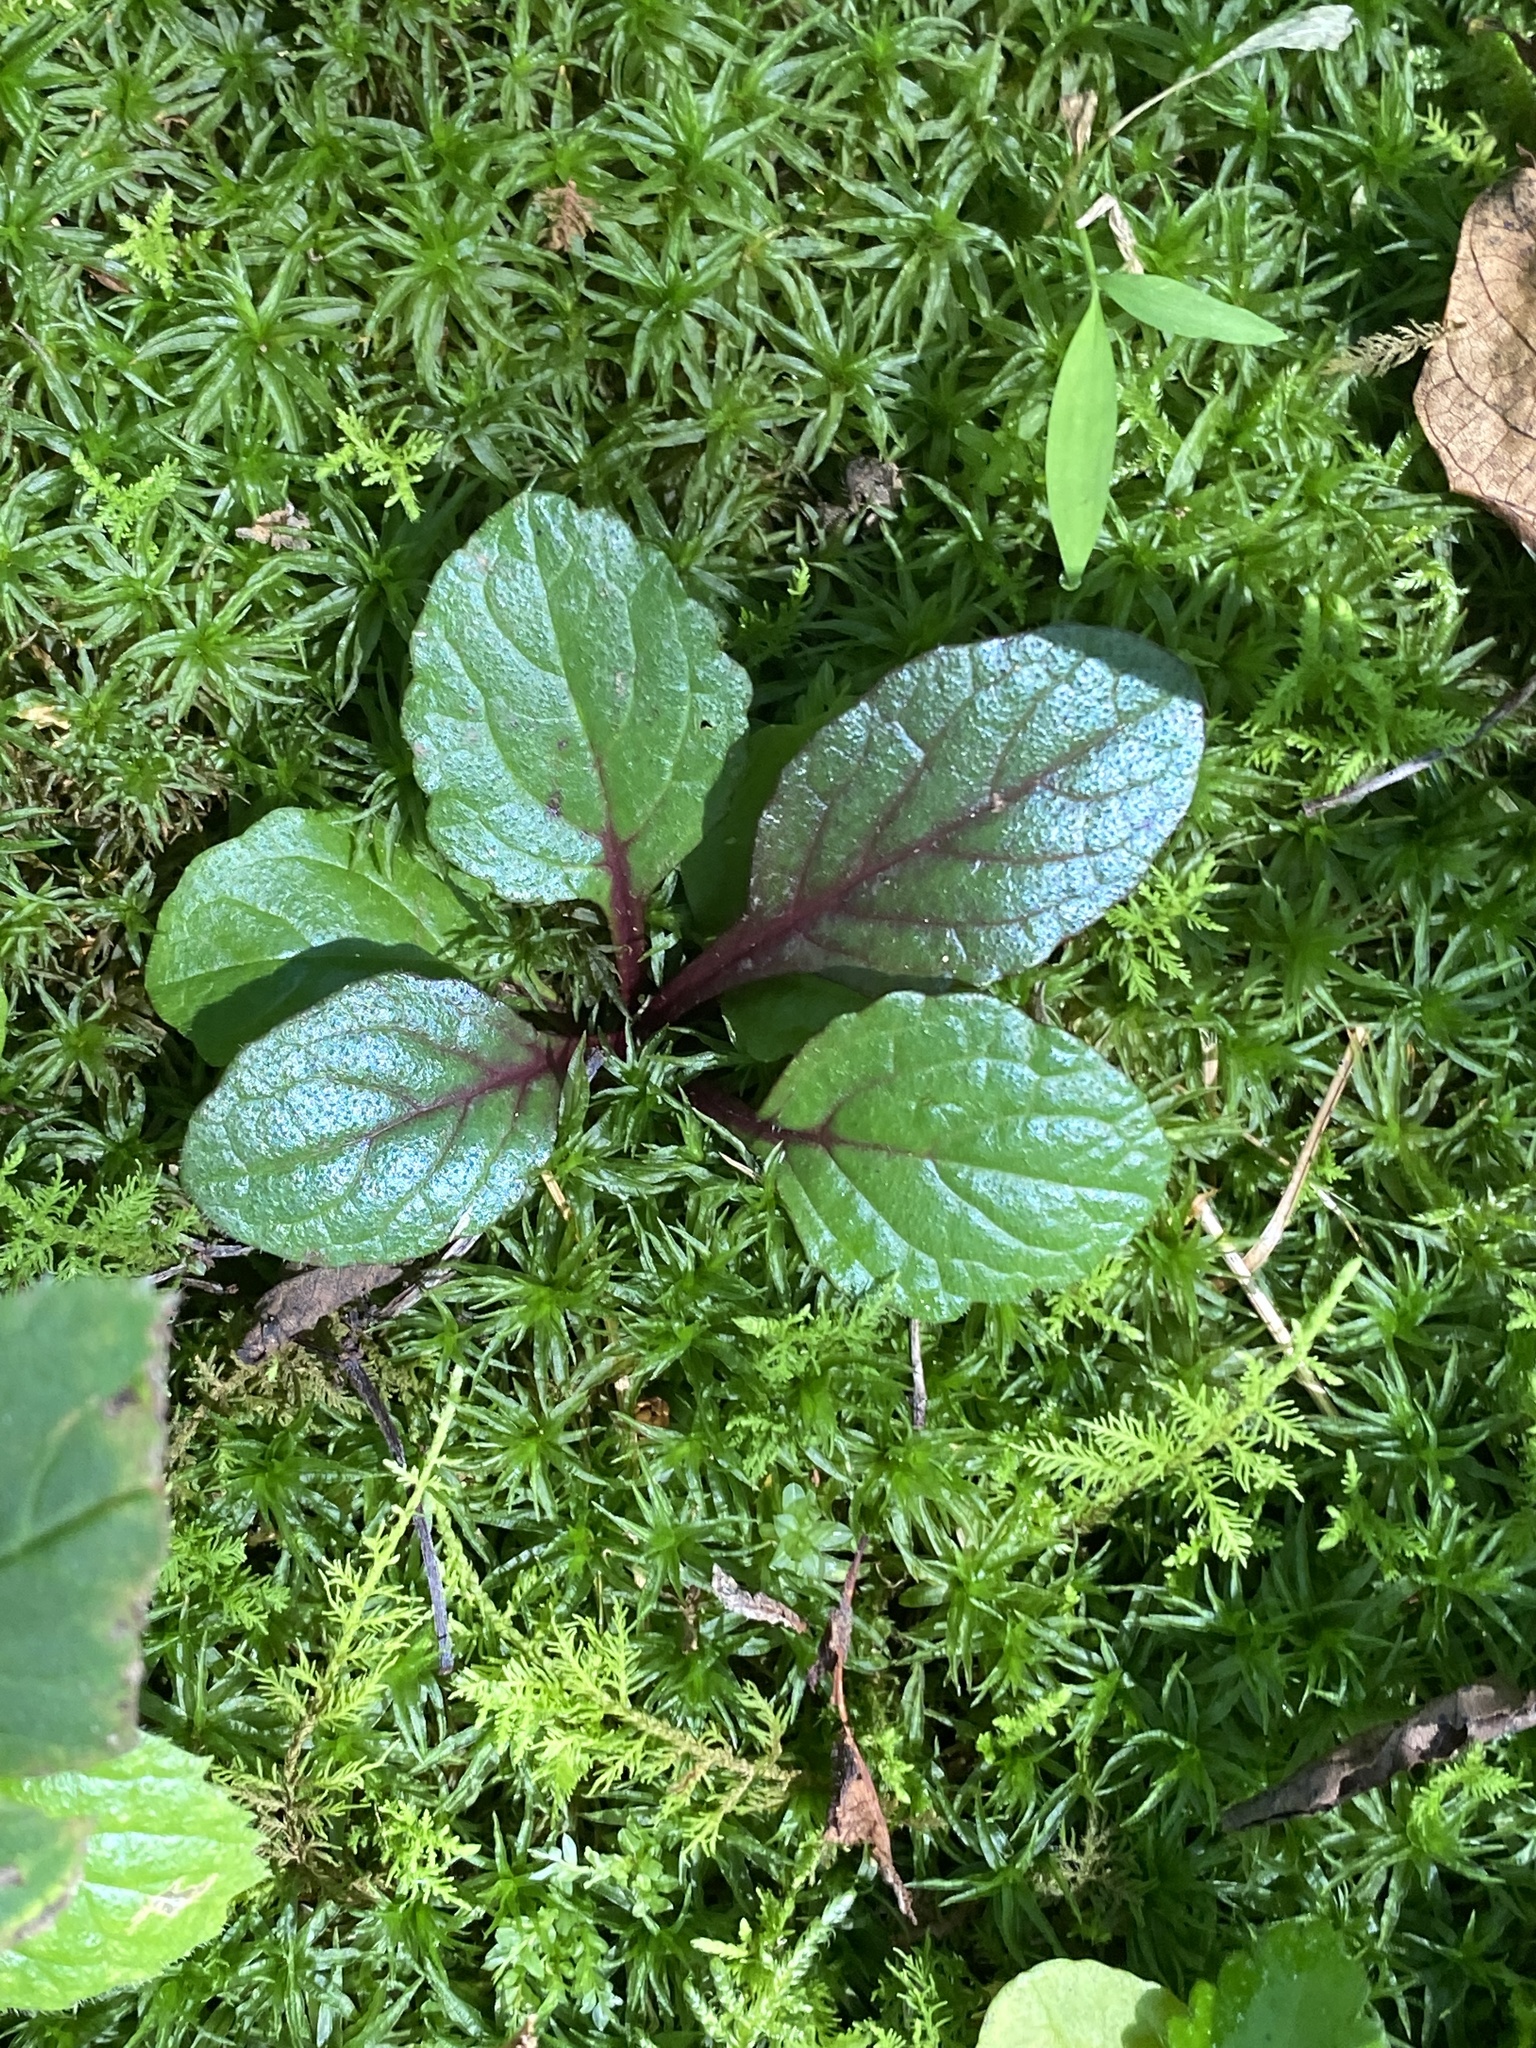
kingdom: Plantae
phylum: Tracheophyta
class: Magnoliopsida
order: Lamiales
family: Lamiaceae
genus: Ajuga
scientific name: Ajuga reptans
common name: Bugle
